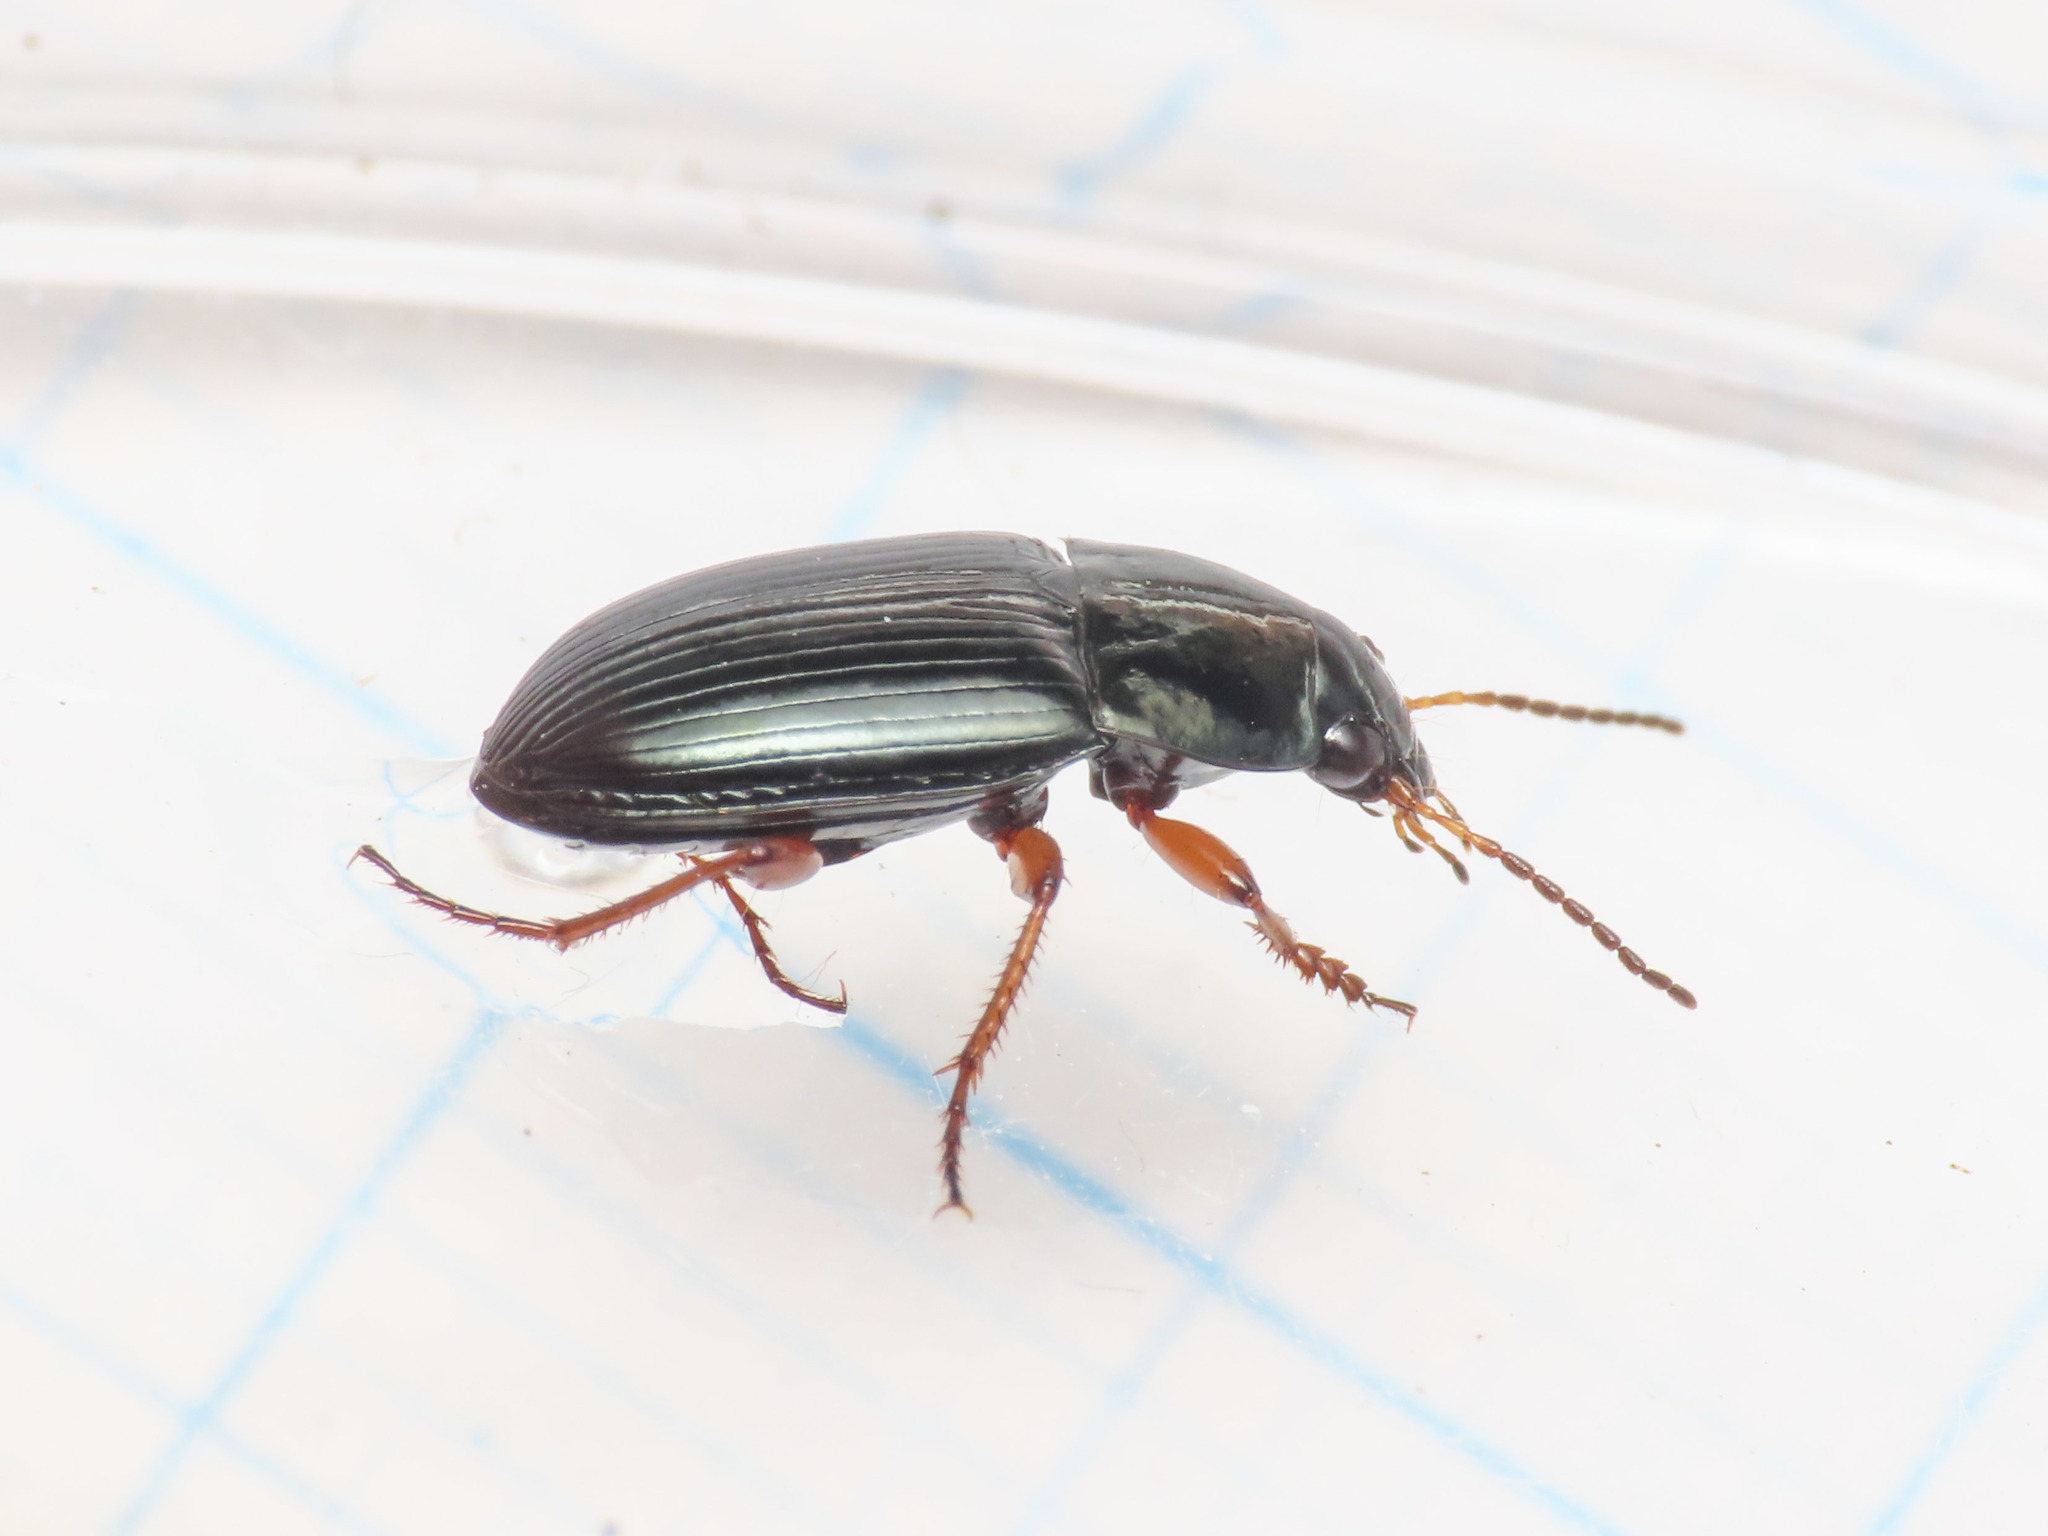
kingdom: Animalia
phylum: Arthropoda
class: Insecta
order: Coleoptera
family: Carabidae
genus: Amara
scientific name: Amara lucida
